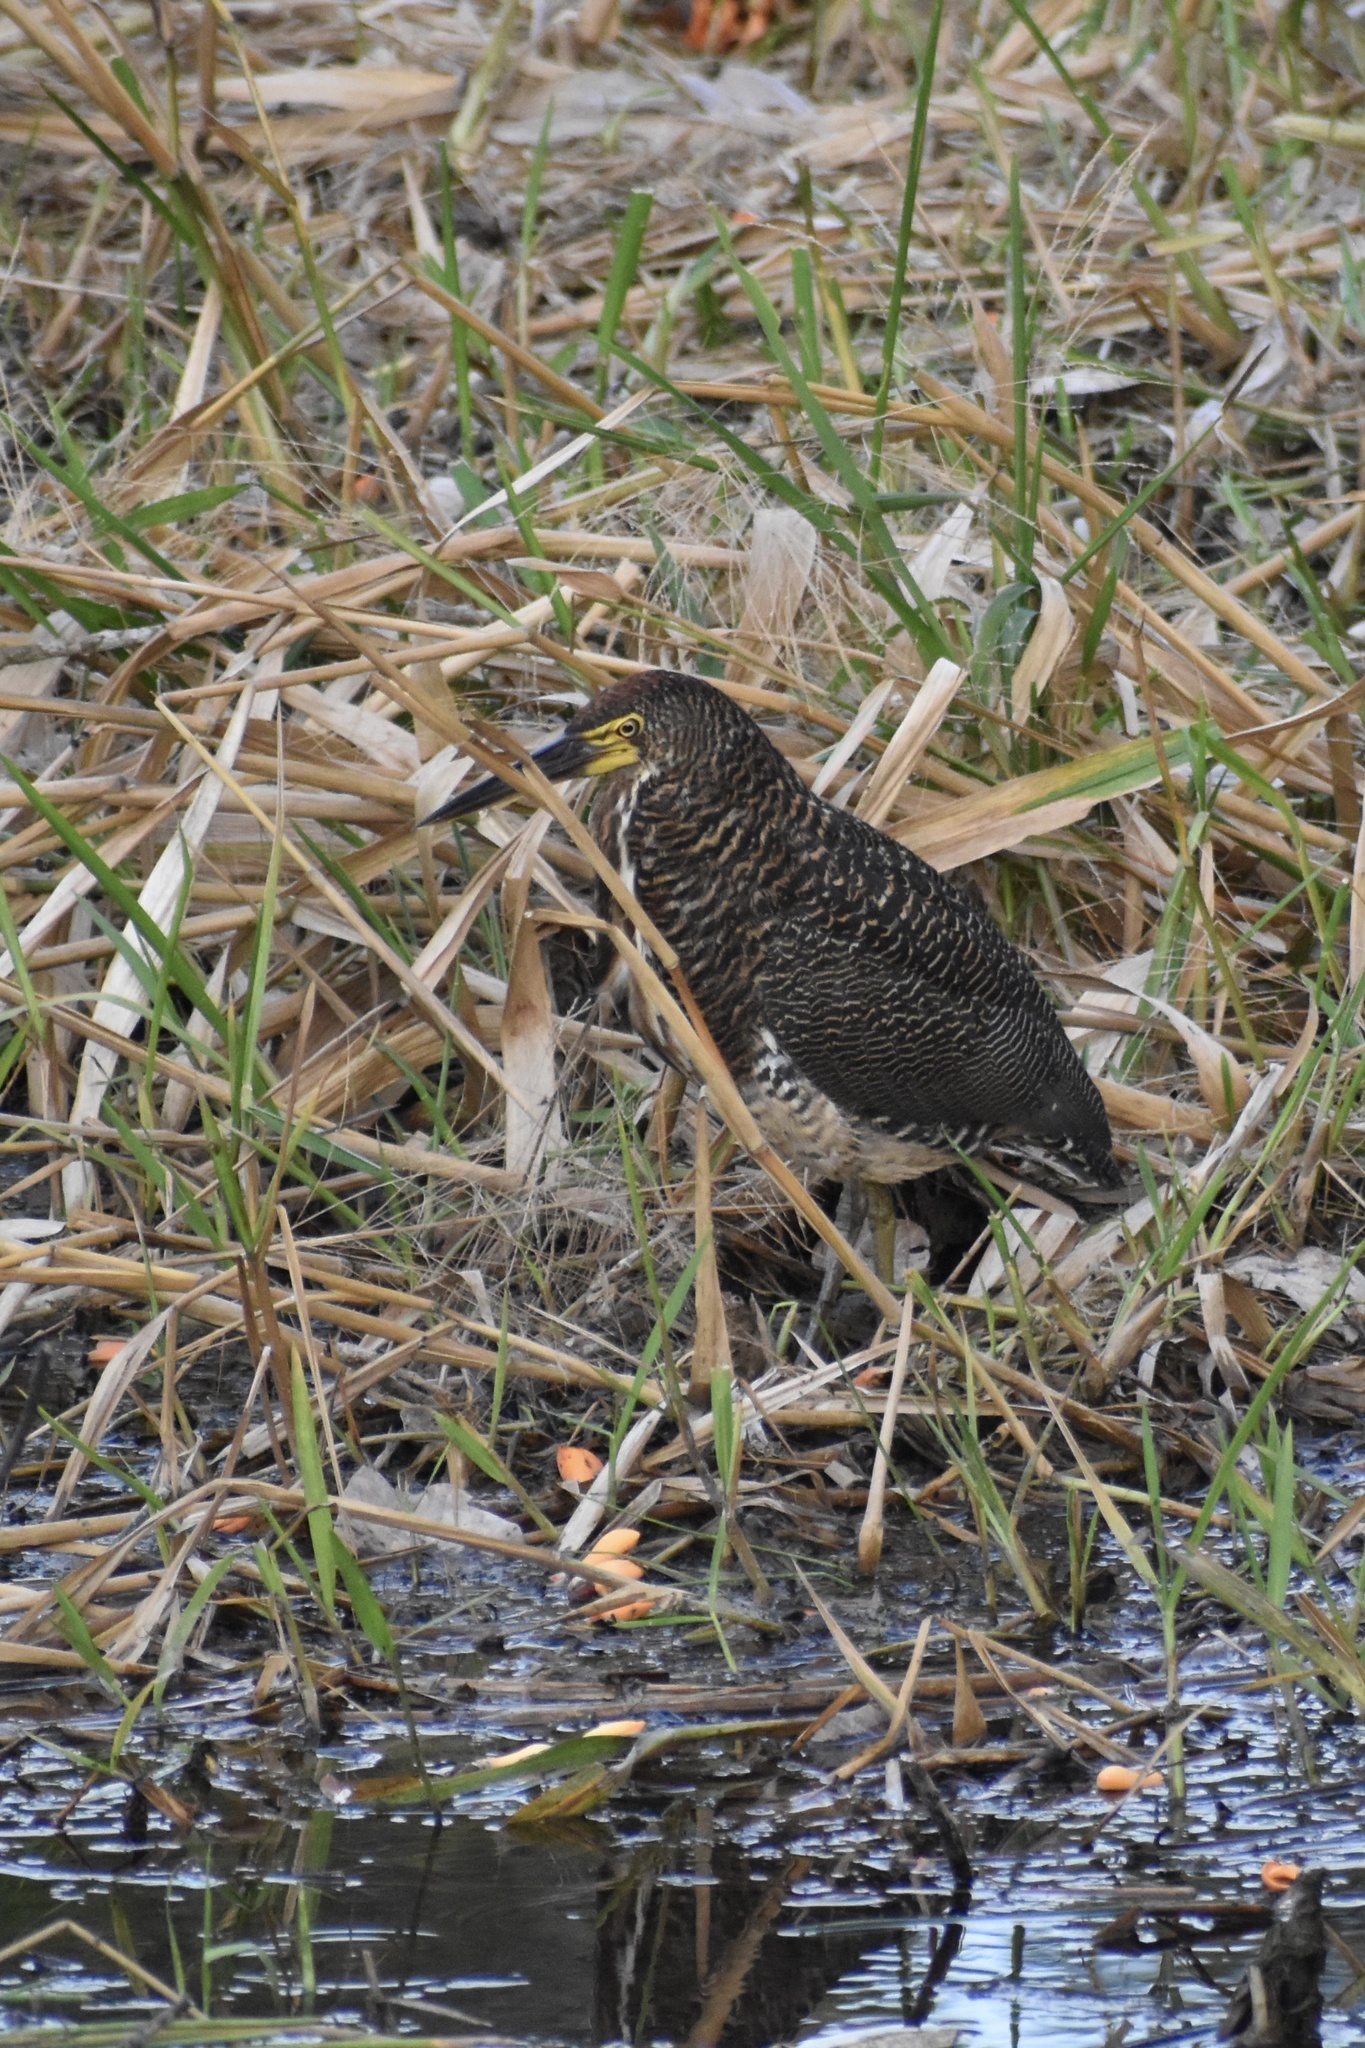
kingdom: Animalia
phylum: Chordata
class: Aves
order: Pelecaniformes
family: Ardeidae
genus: Tigrisoma
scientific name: Tigrisoma lineatum
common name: Rufescent tiger-heron
